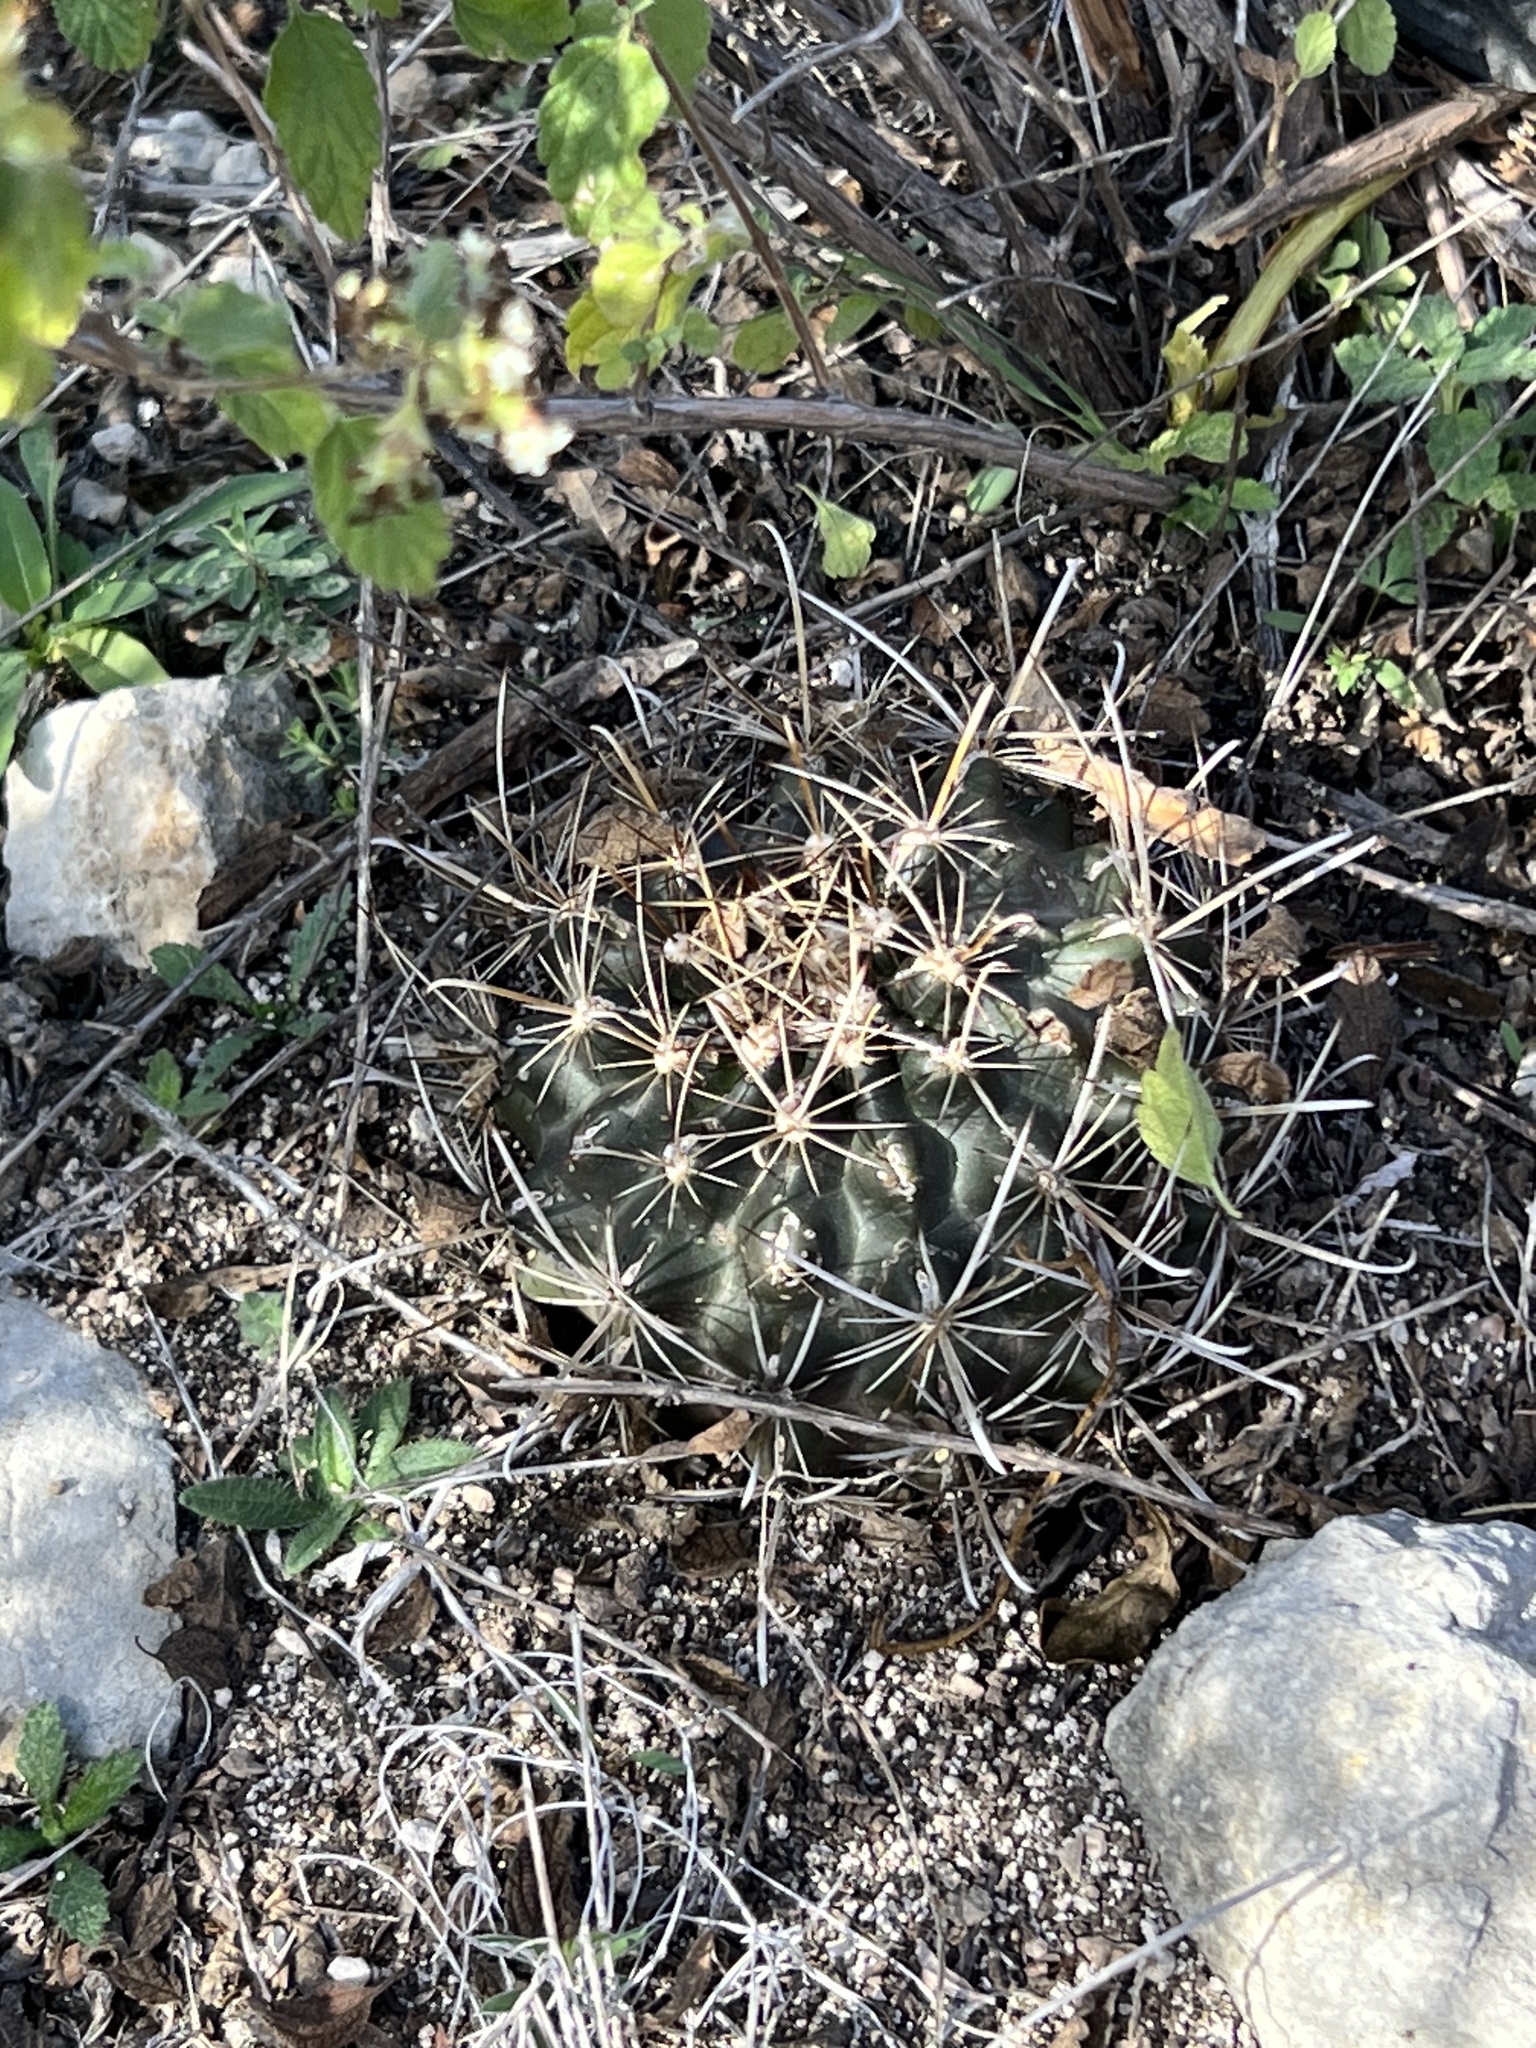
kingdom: Plantae
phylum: Tracheophyta
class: Magnoliopsida
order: Caryophyllales
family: Cactaceae
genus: Sclerocactus
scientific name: Sclerocactus brevihamatus
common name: Engelmann's fishhook cactus
